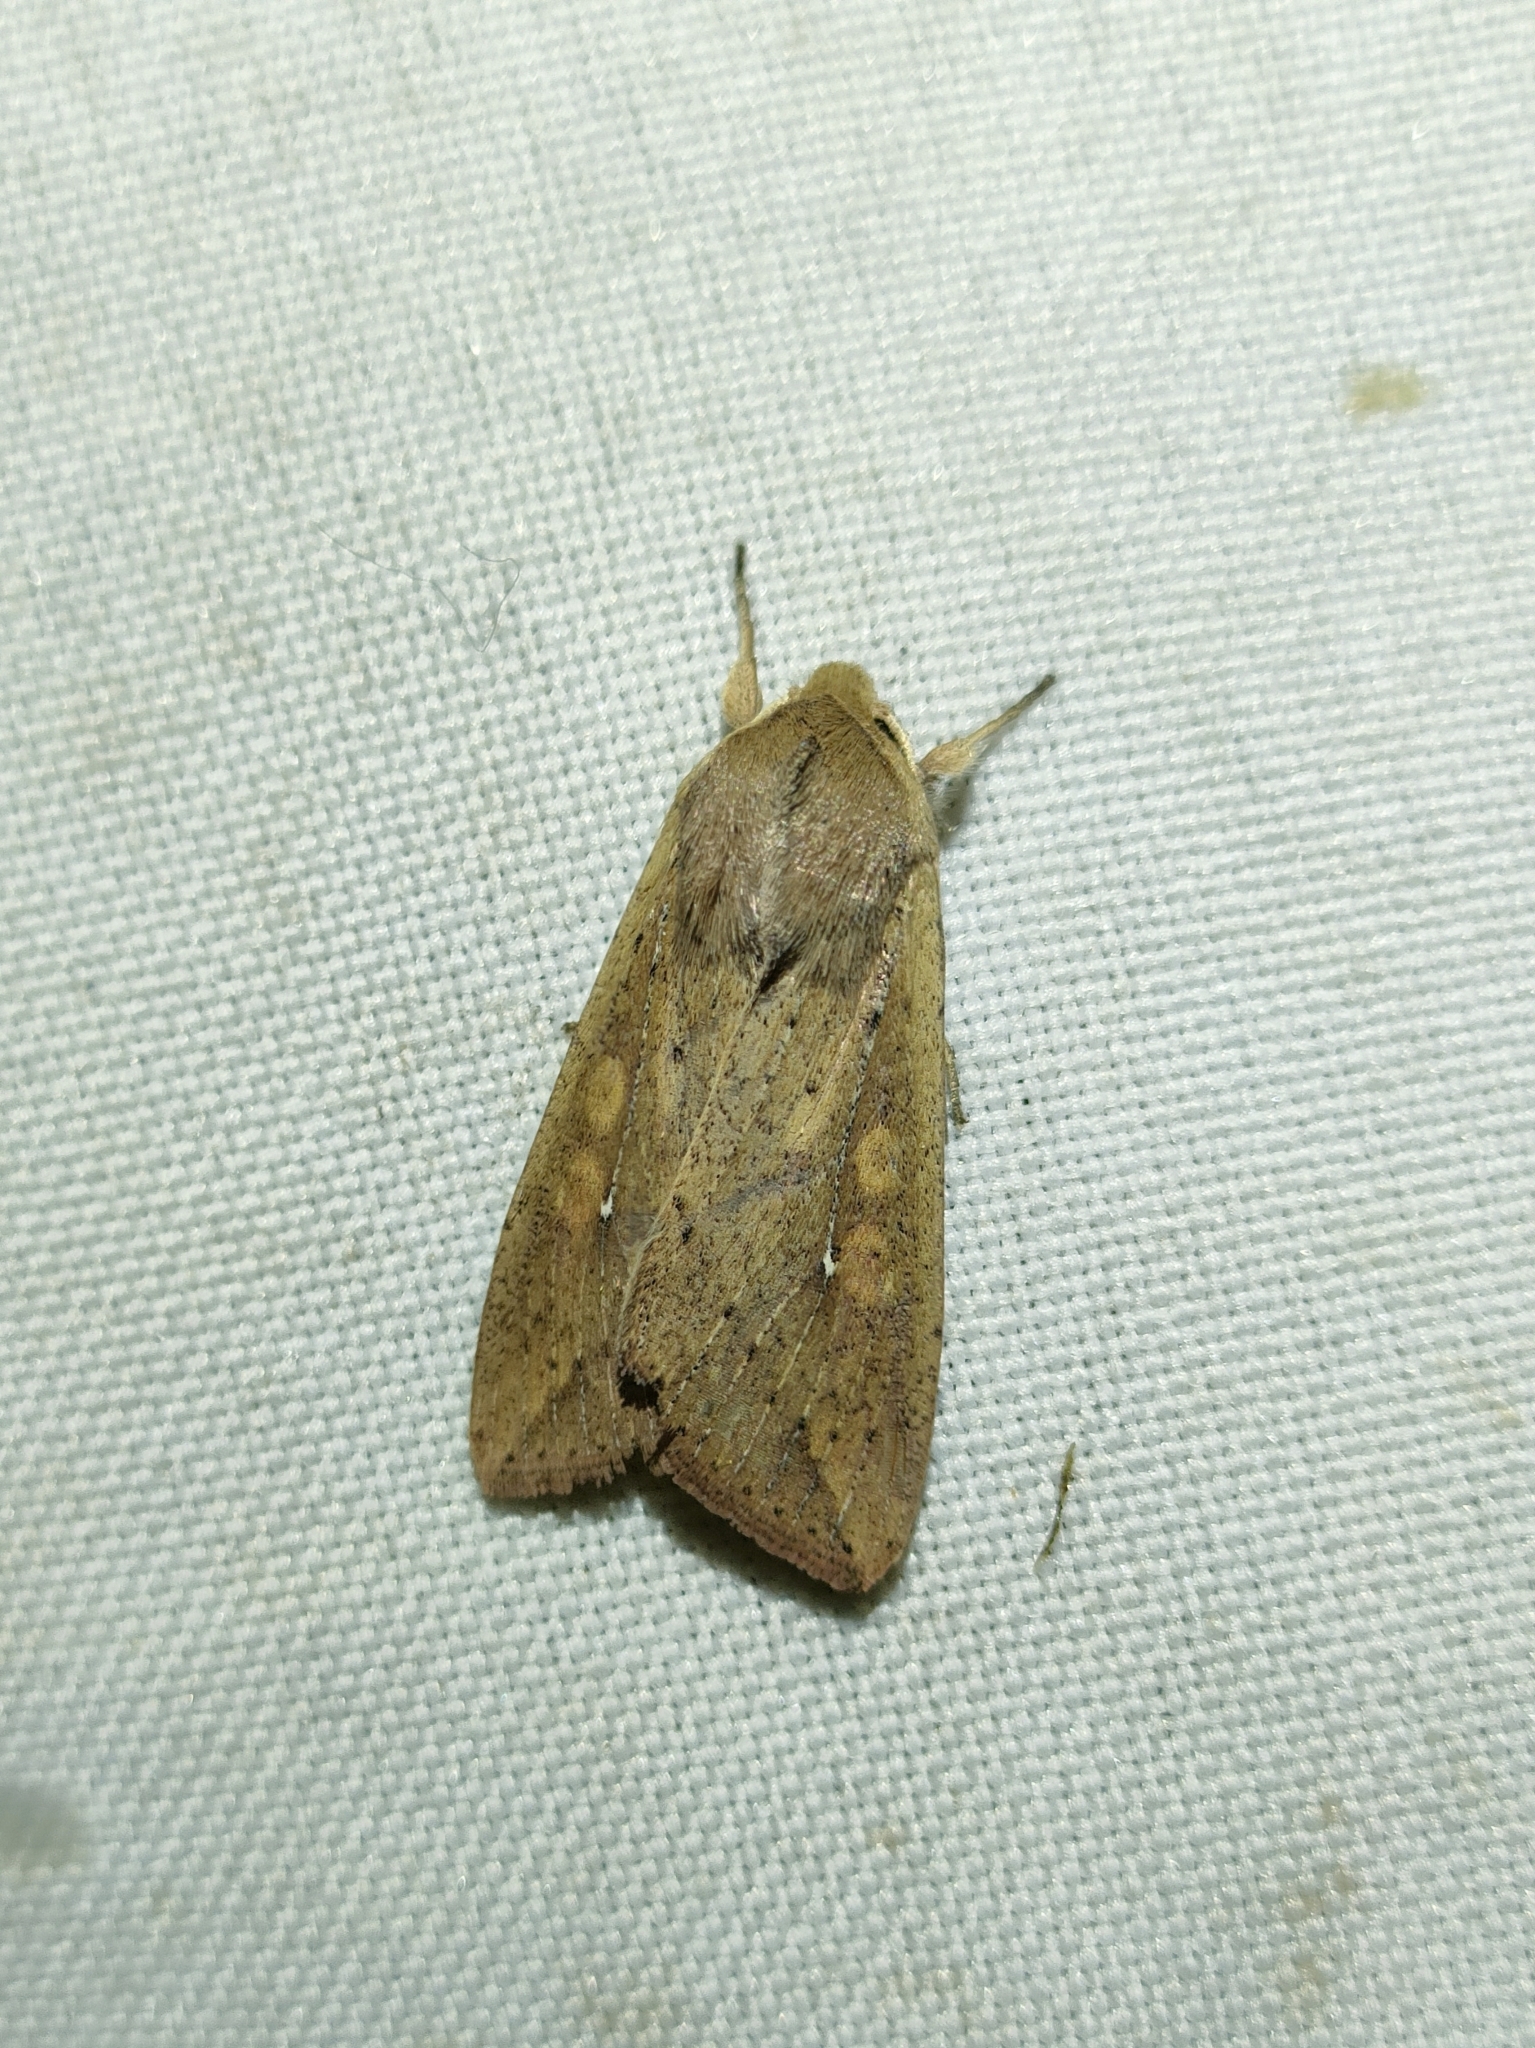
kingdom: Animalia
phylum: Arthropoda
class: Insecta
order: Lepidoptera
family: Noctuidae
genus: Mythimna
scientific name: Mythimna unipuncta
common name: White-speck
